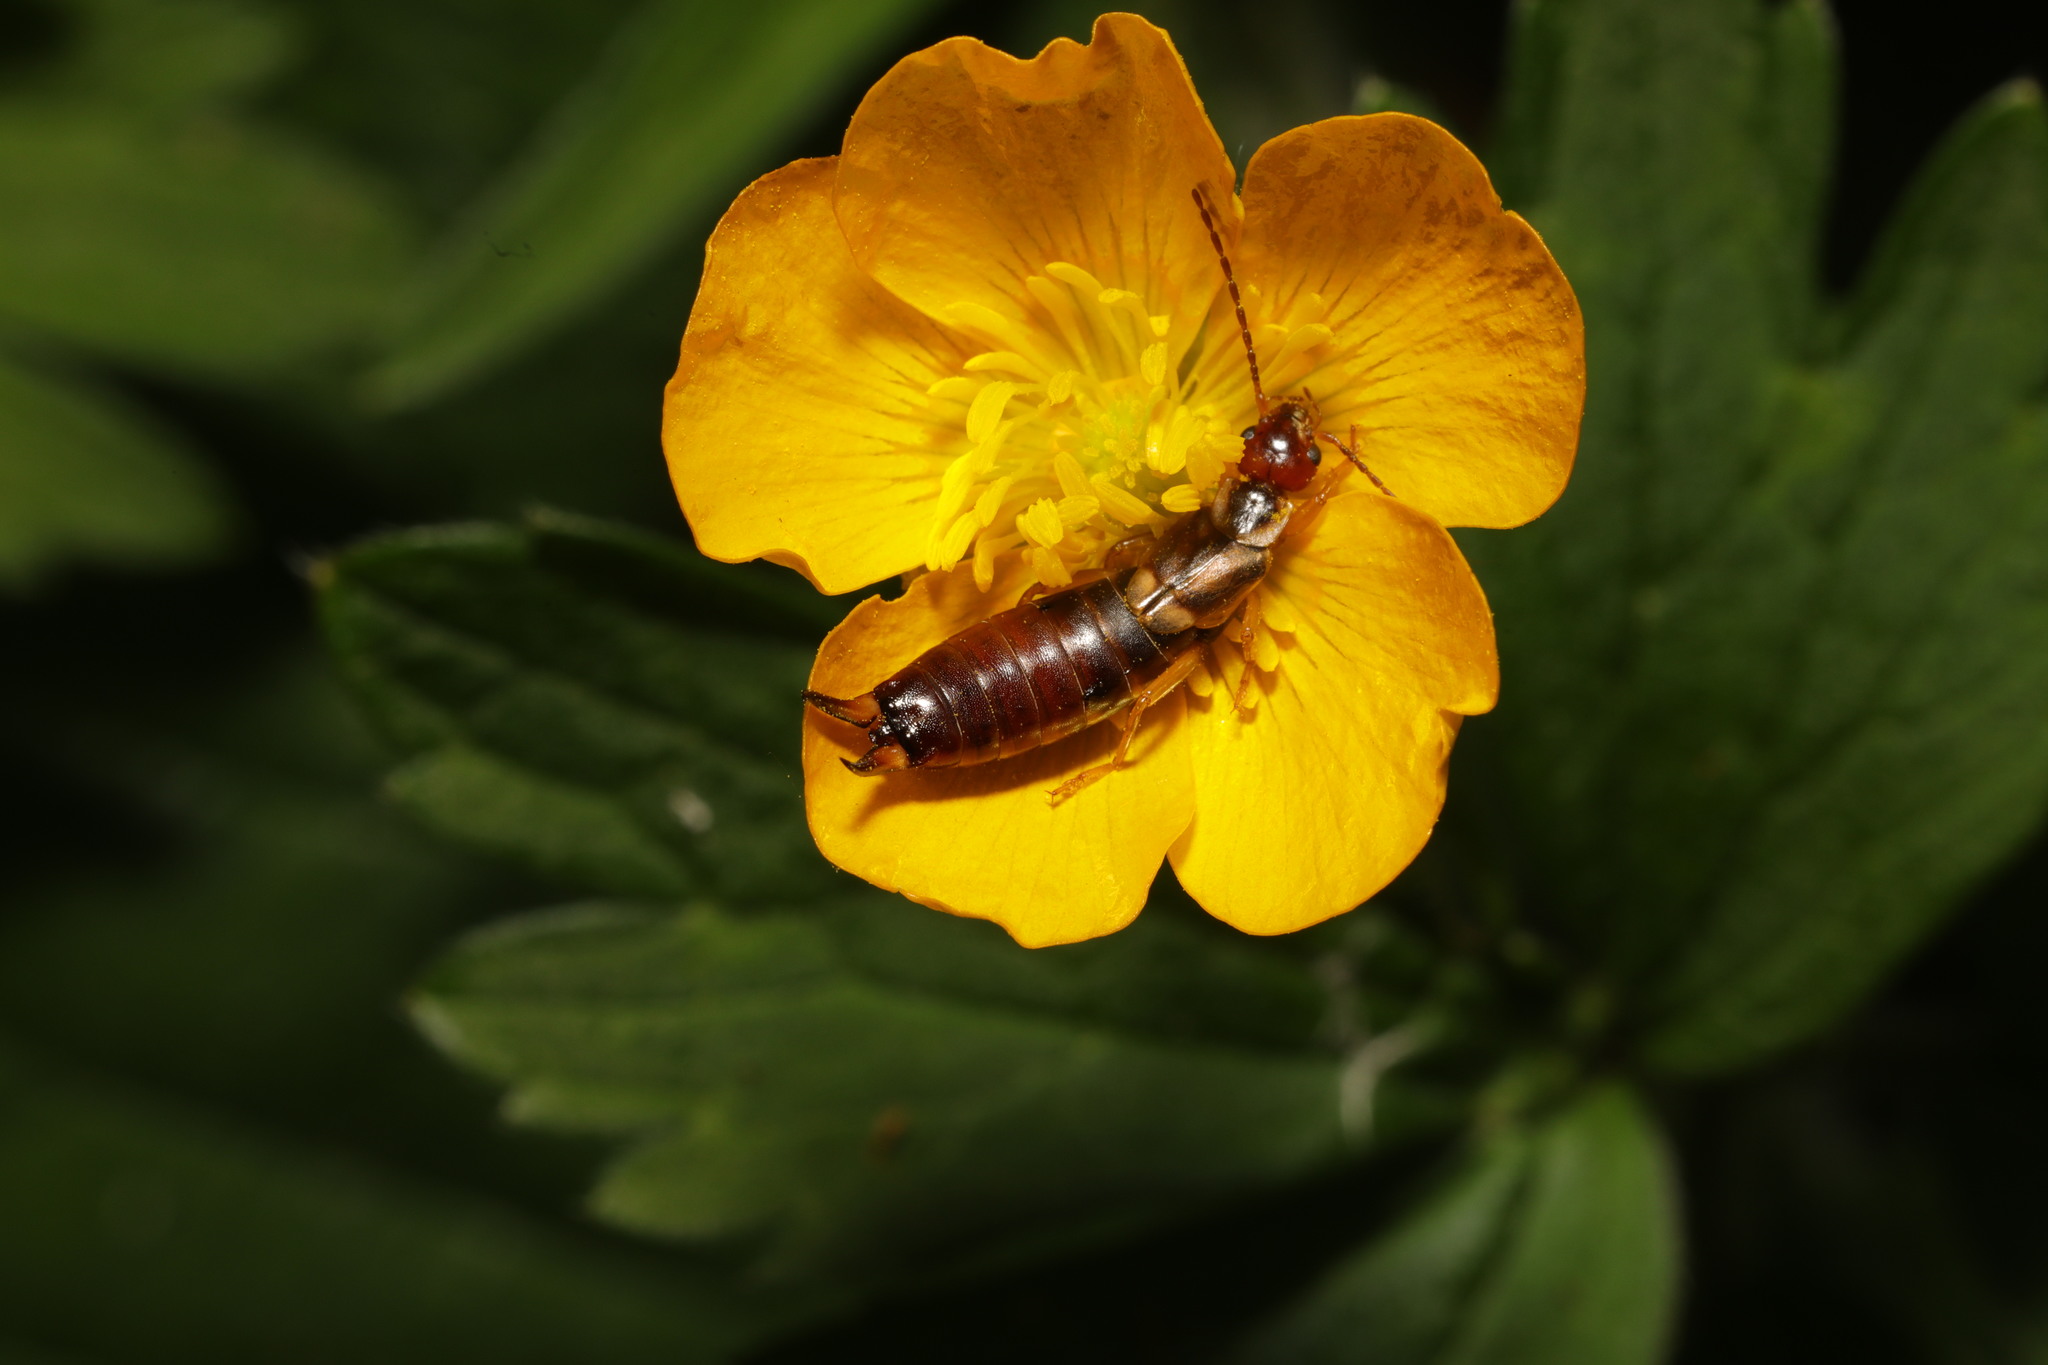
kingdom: Animalia
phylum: Arthropoda
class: Insecta
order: Dermaptera
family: Forficulidae
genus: Forficula
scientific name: Forficula
